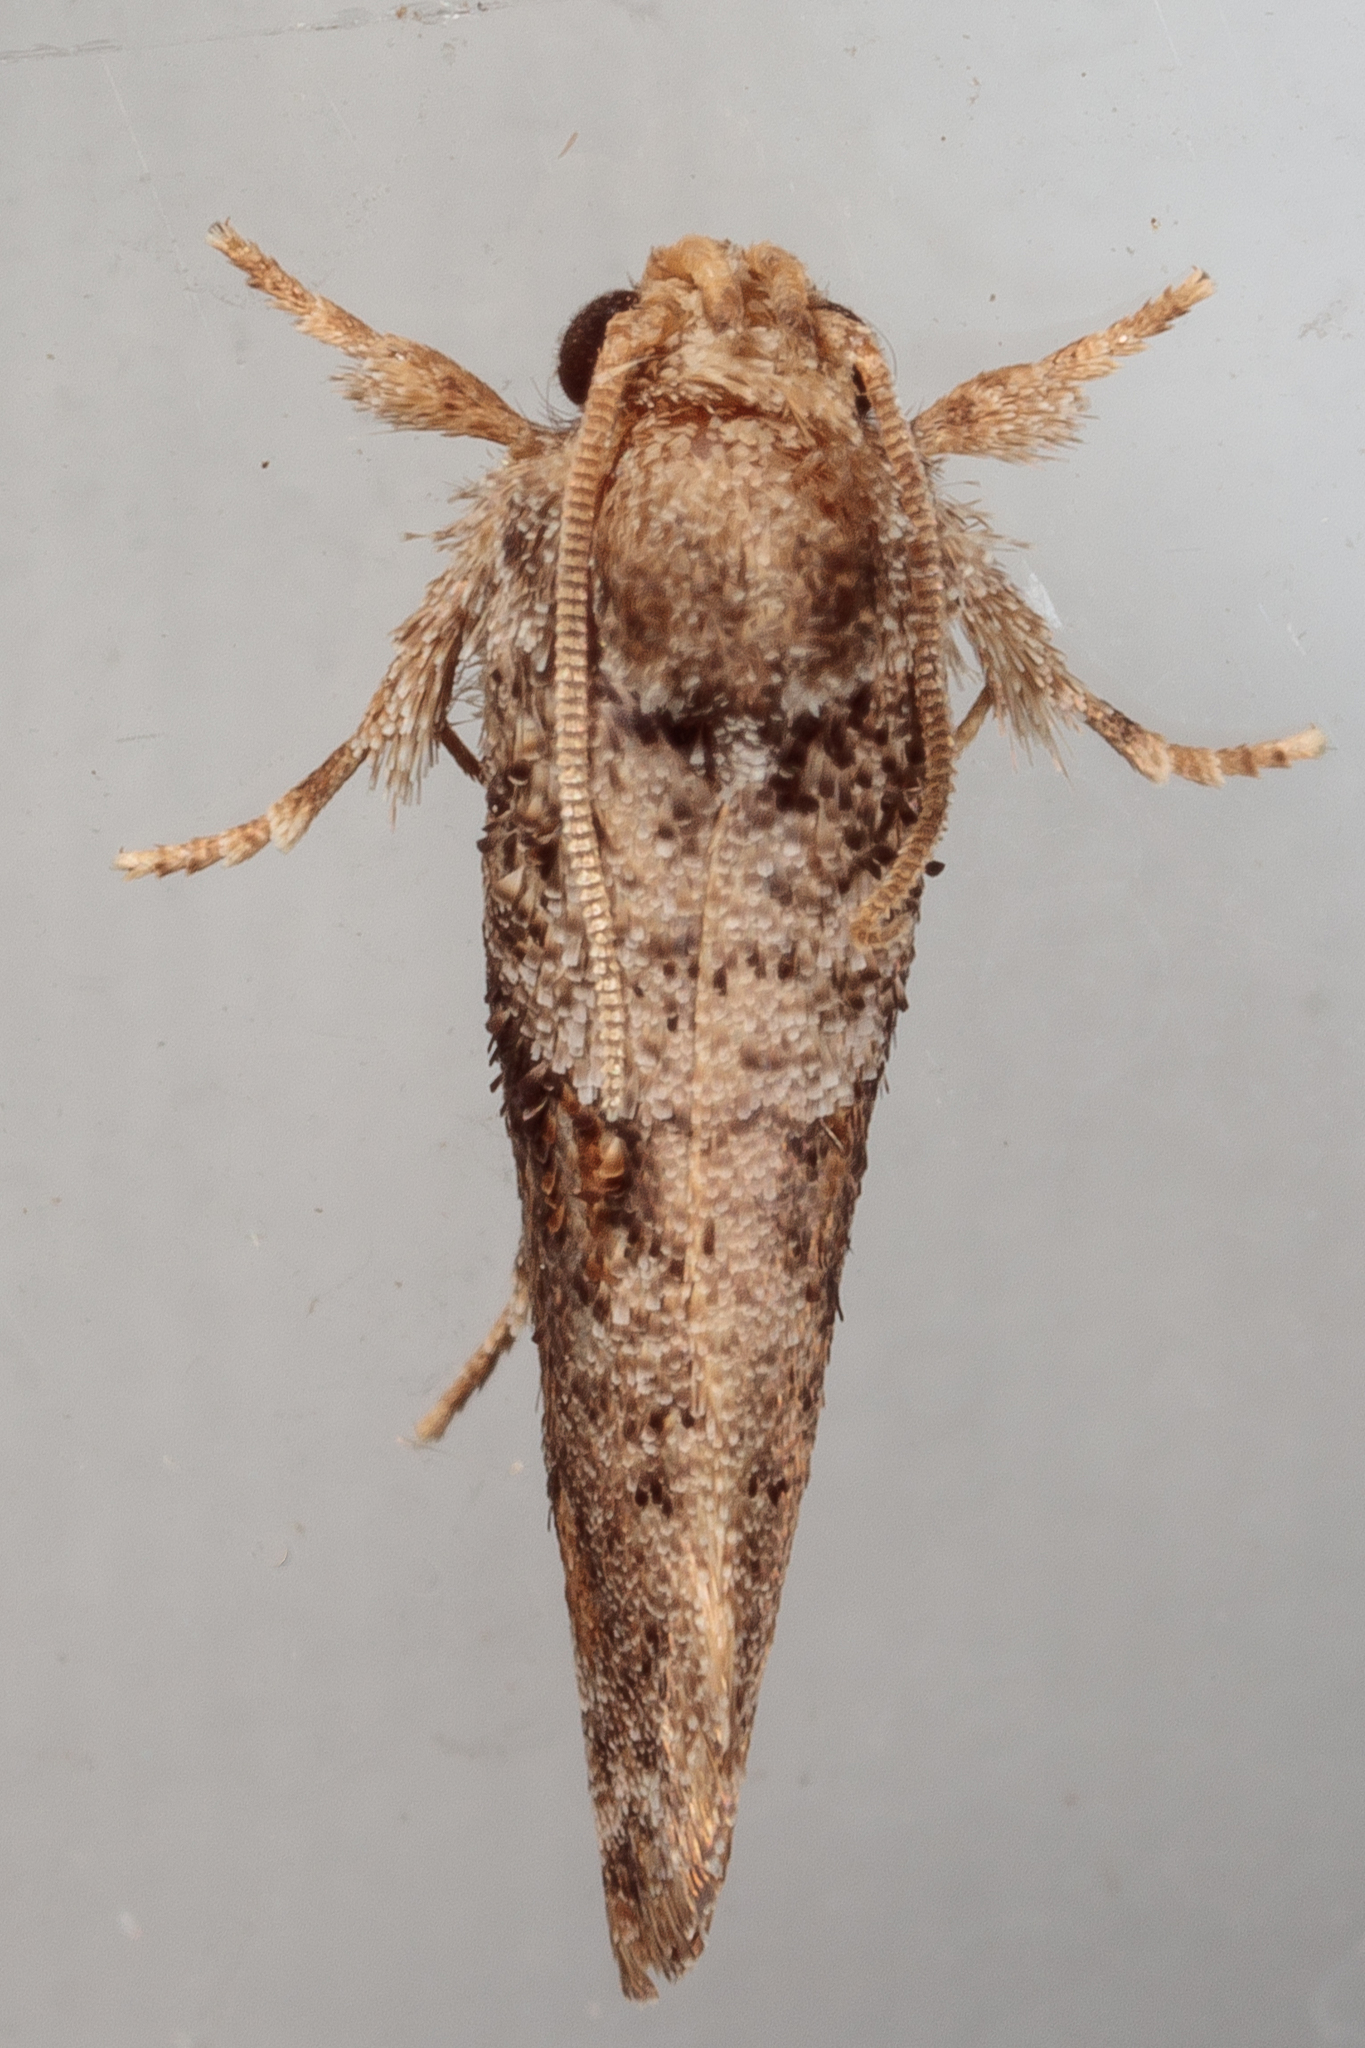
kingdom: Animalia
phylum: Arthropoda
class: Insecta
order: Lepidoptera
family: Tineidae
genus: Acrolophus
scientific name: Acrolophus piger
